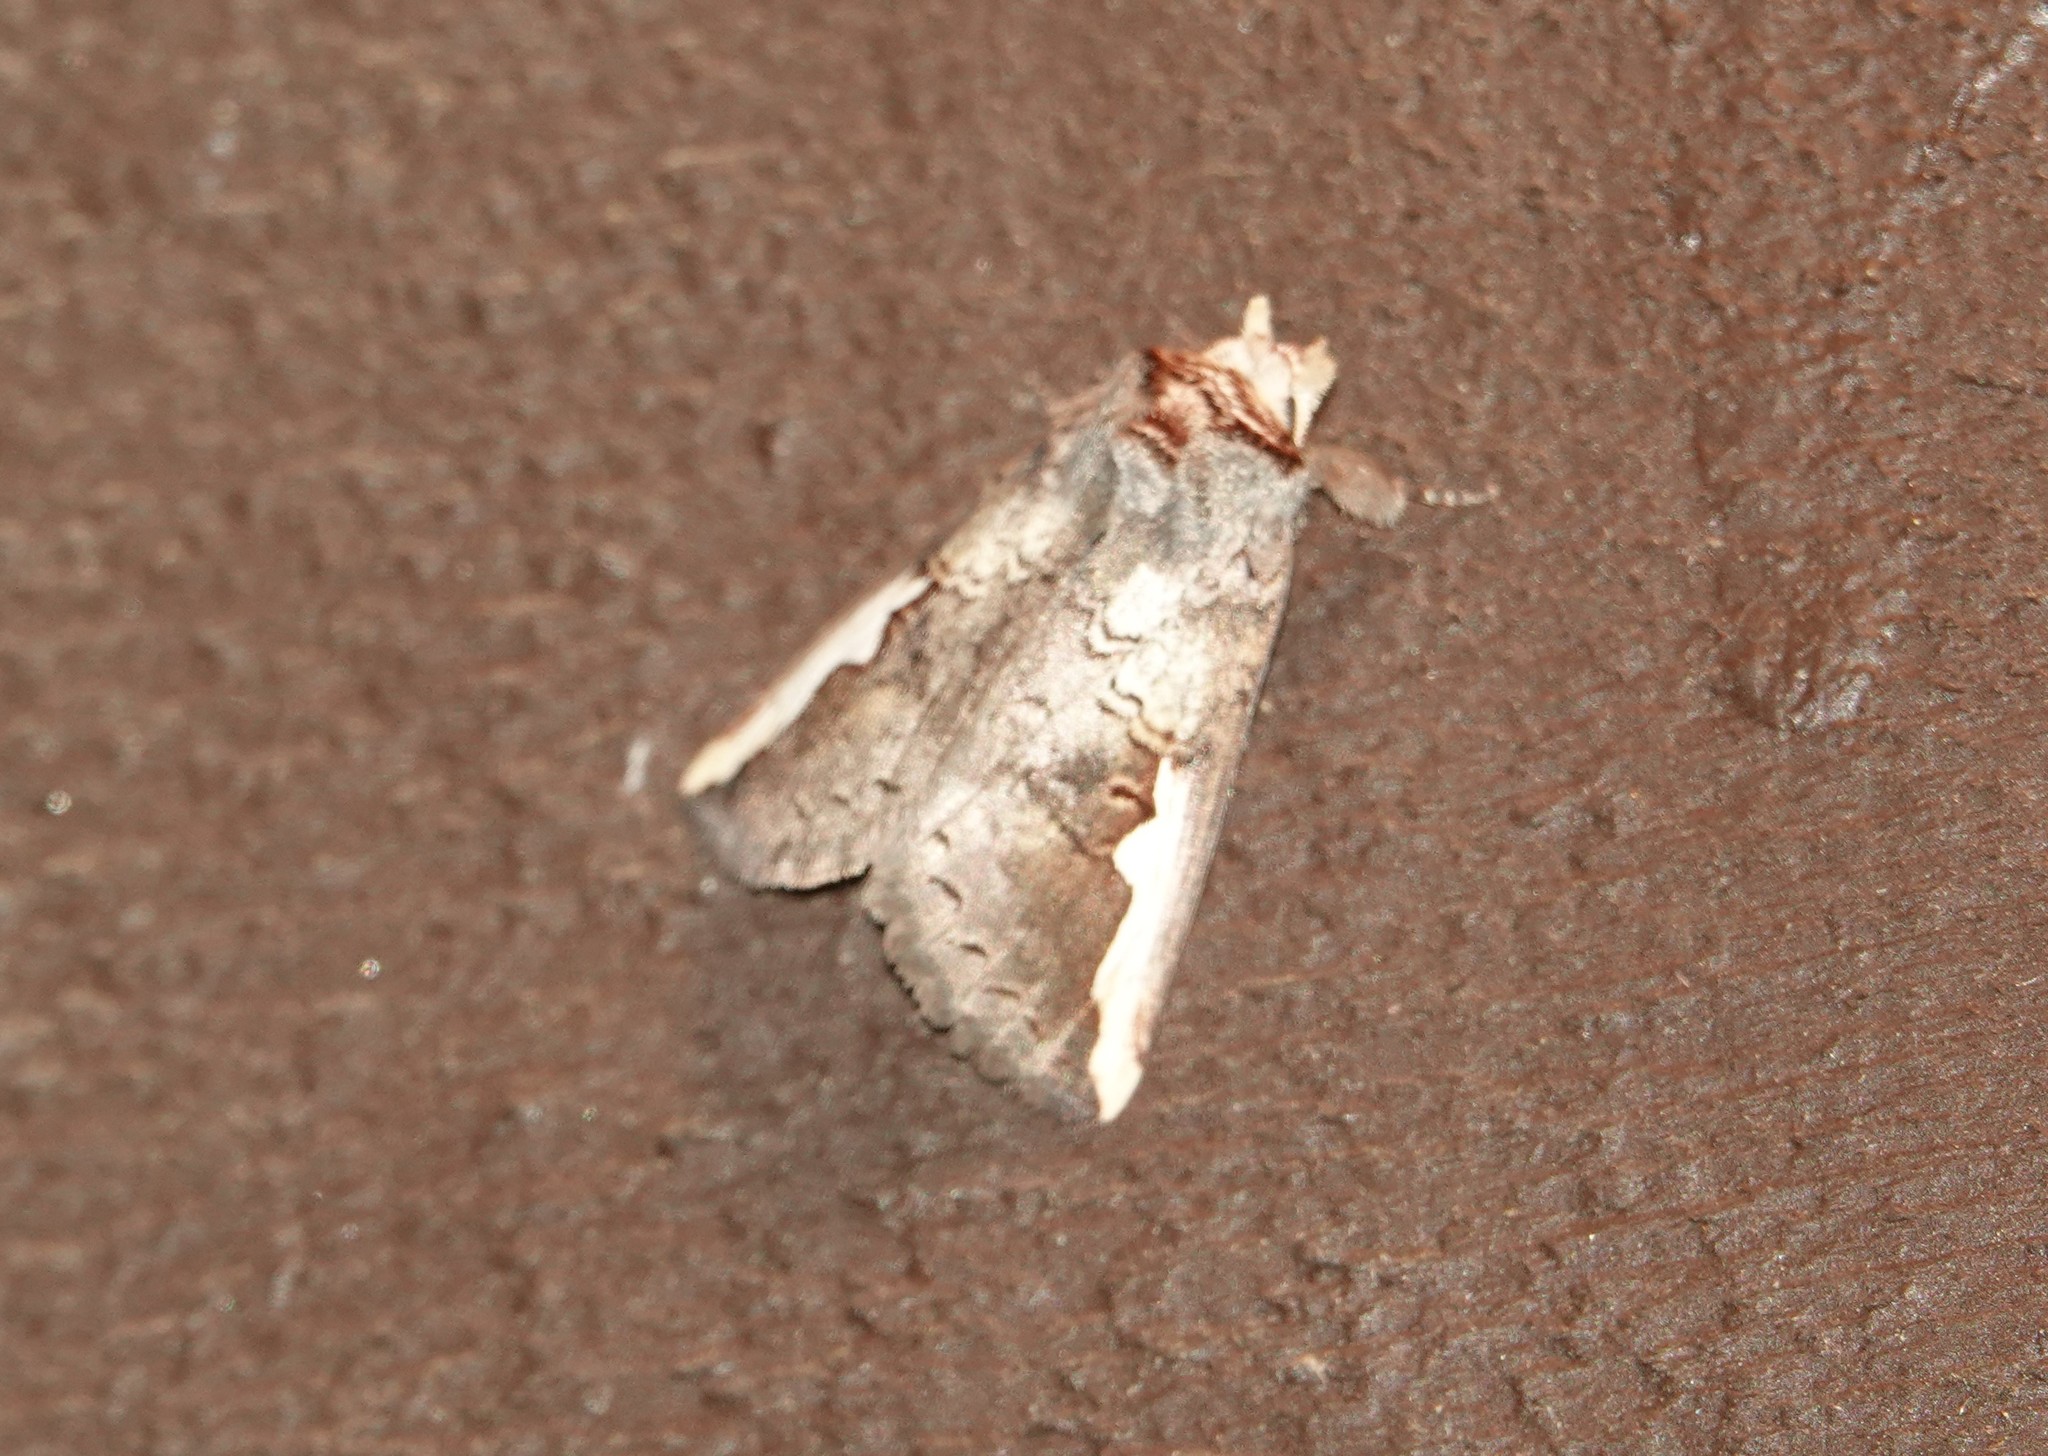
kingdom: Animalia
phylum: Arthropoda
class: Insecta
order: Lepidoptera
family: Notodontidae
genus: Symmerista
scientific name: Symmerista
